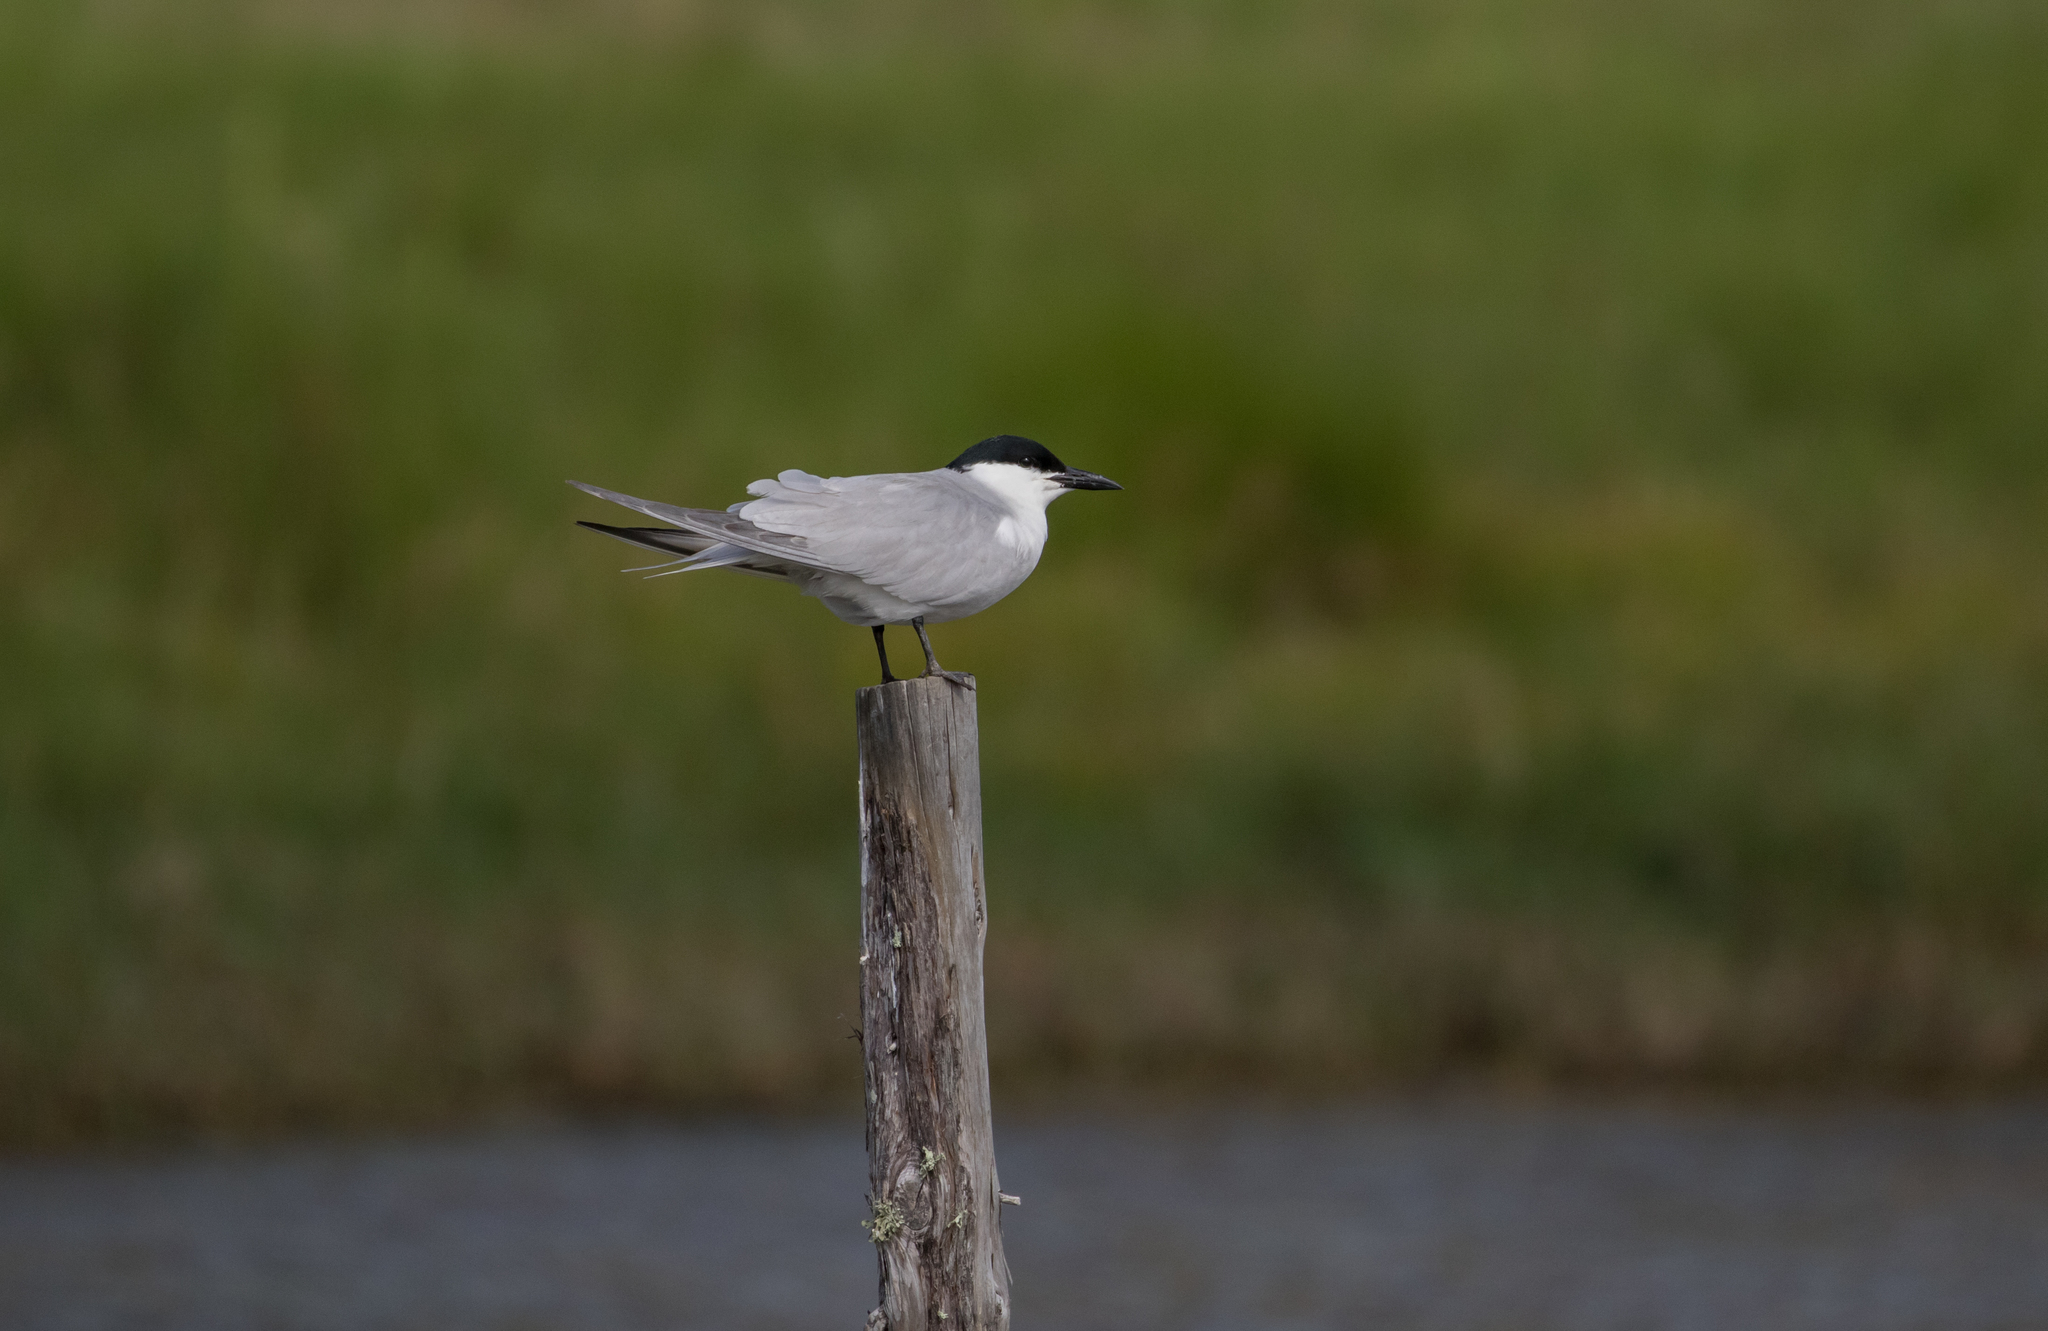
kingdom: Animalia
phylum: Chordata
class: Aves
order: Charadriiformes
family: Laridae
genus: Gelochelidon
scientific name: Gelochelidon nilotica
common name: Gull-billed tern
